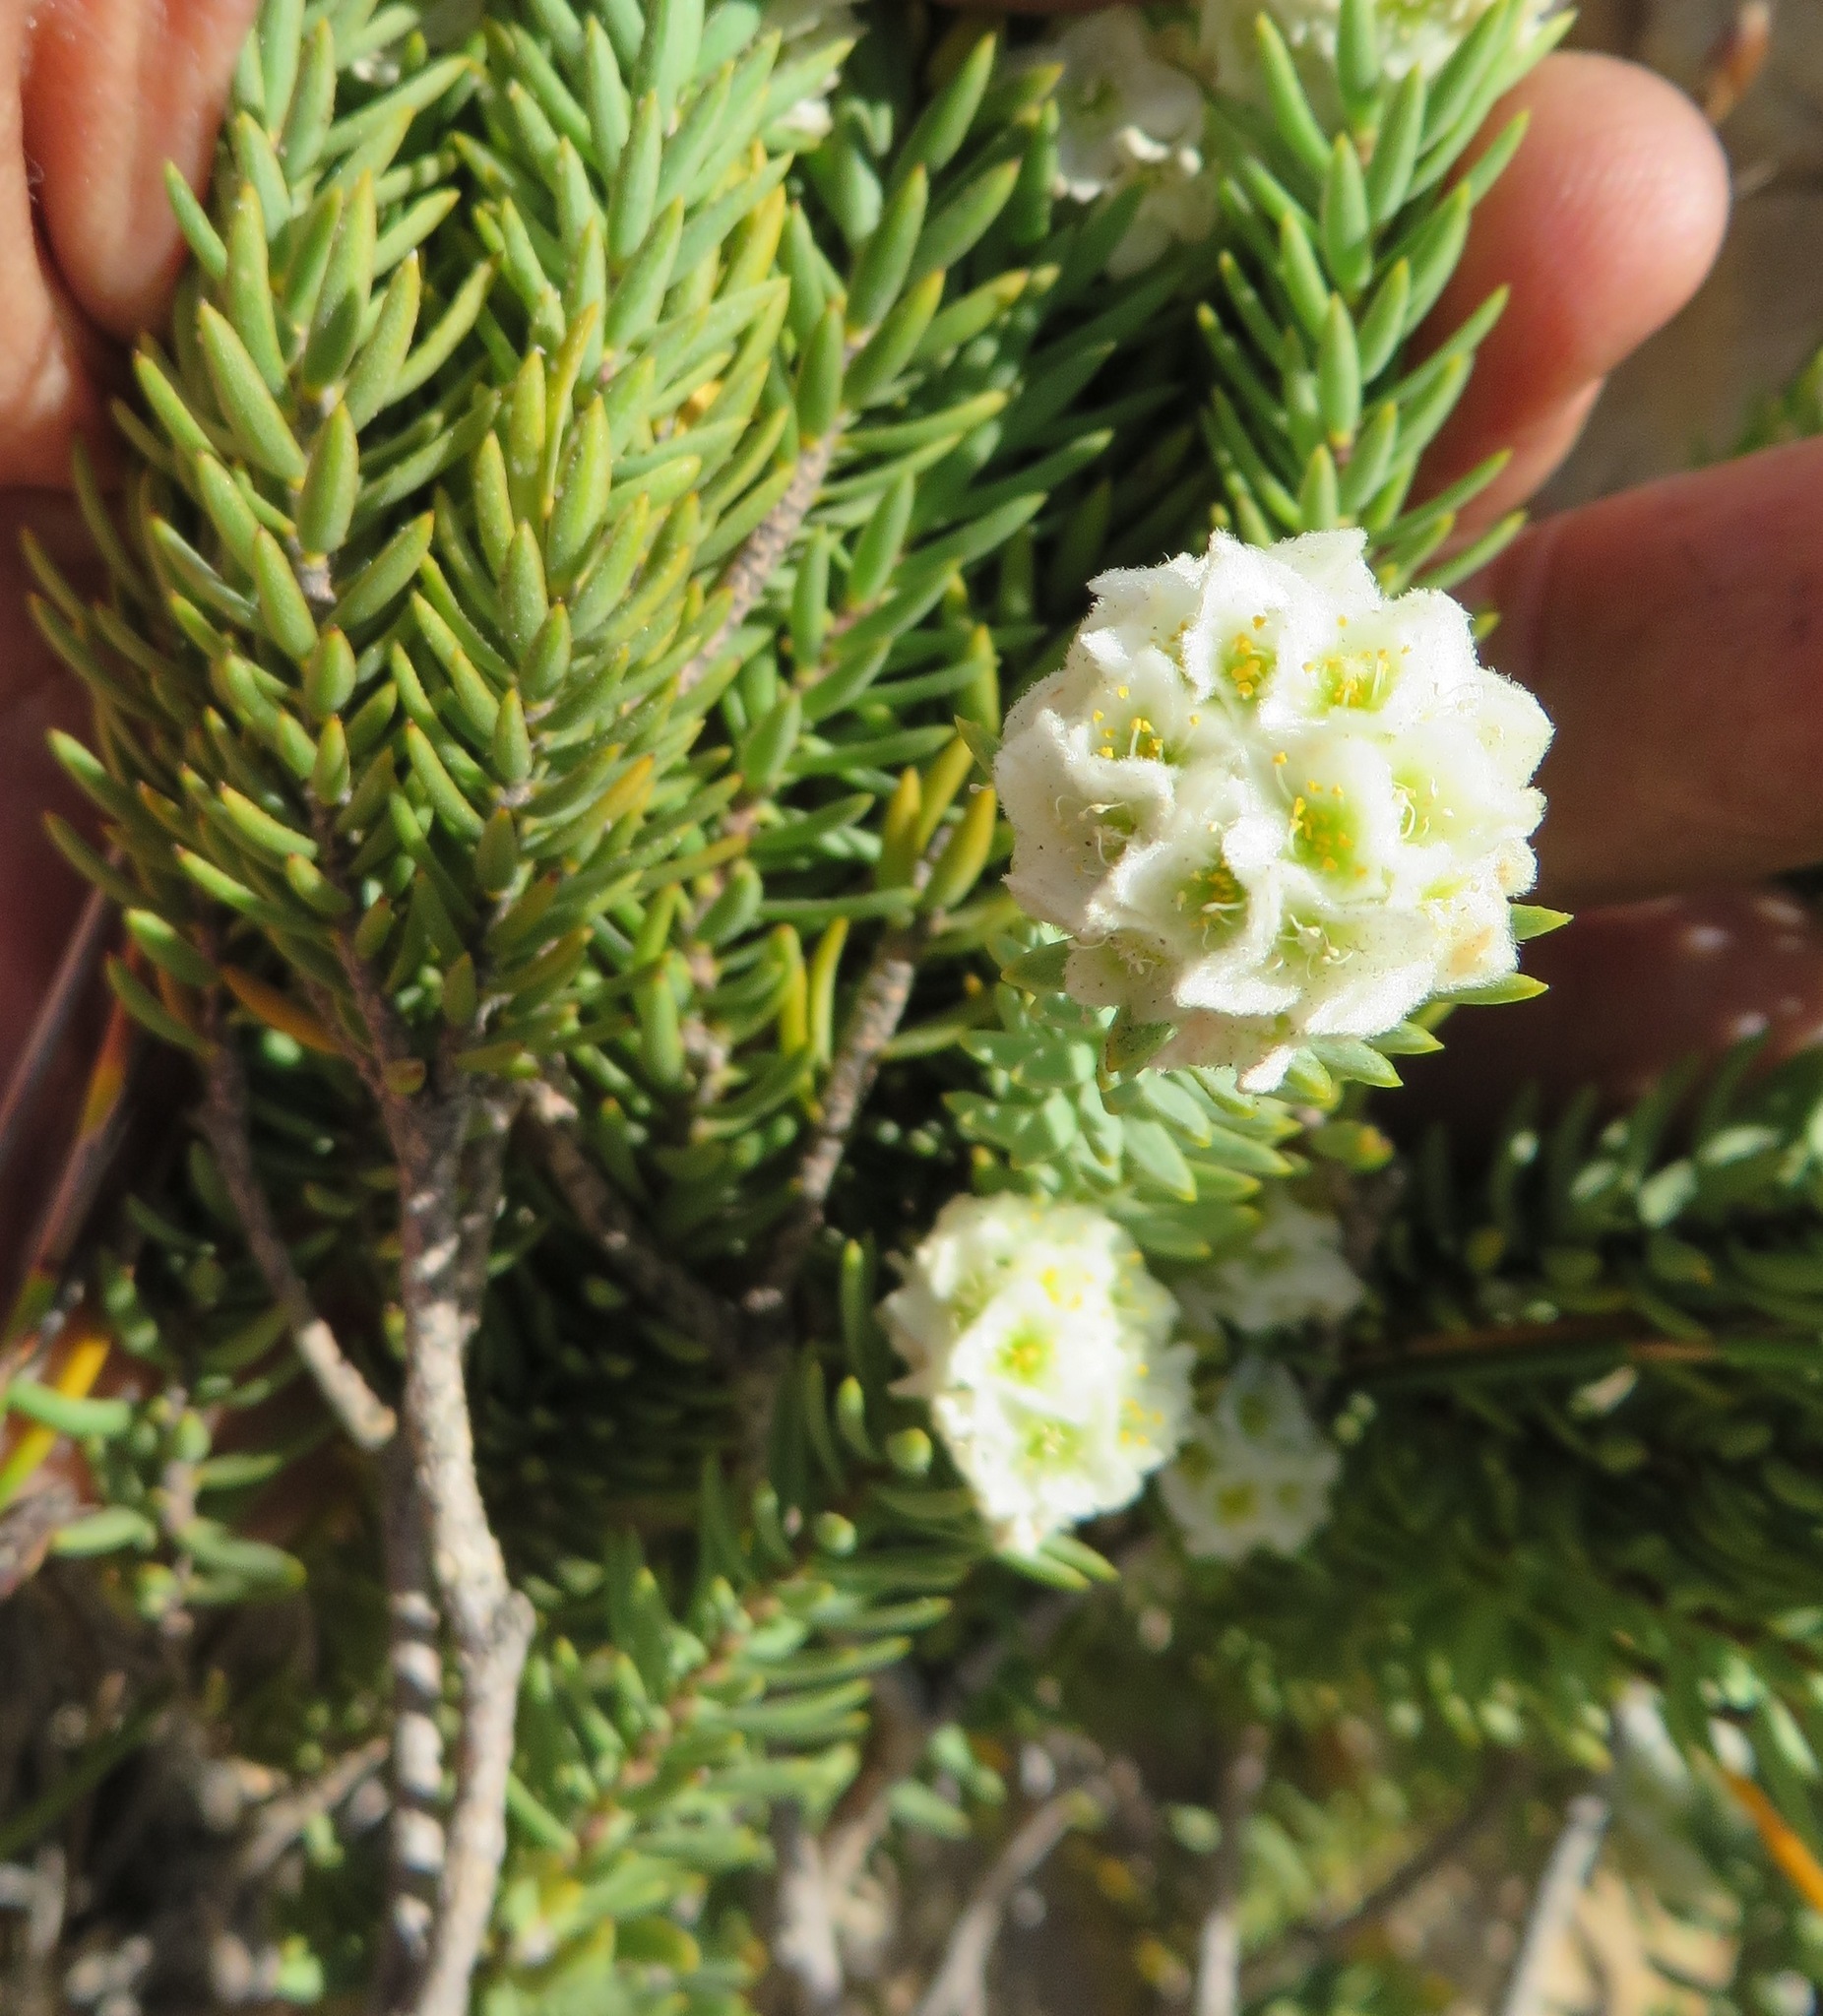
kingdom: Plantae
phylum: Tracheophyta
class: Magnoliopsida
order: Malvales
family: Thymelaeaceae
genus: Lachnaea
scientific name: Lachnaea densiflora
